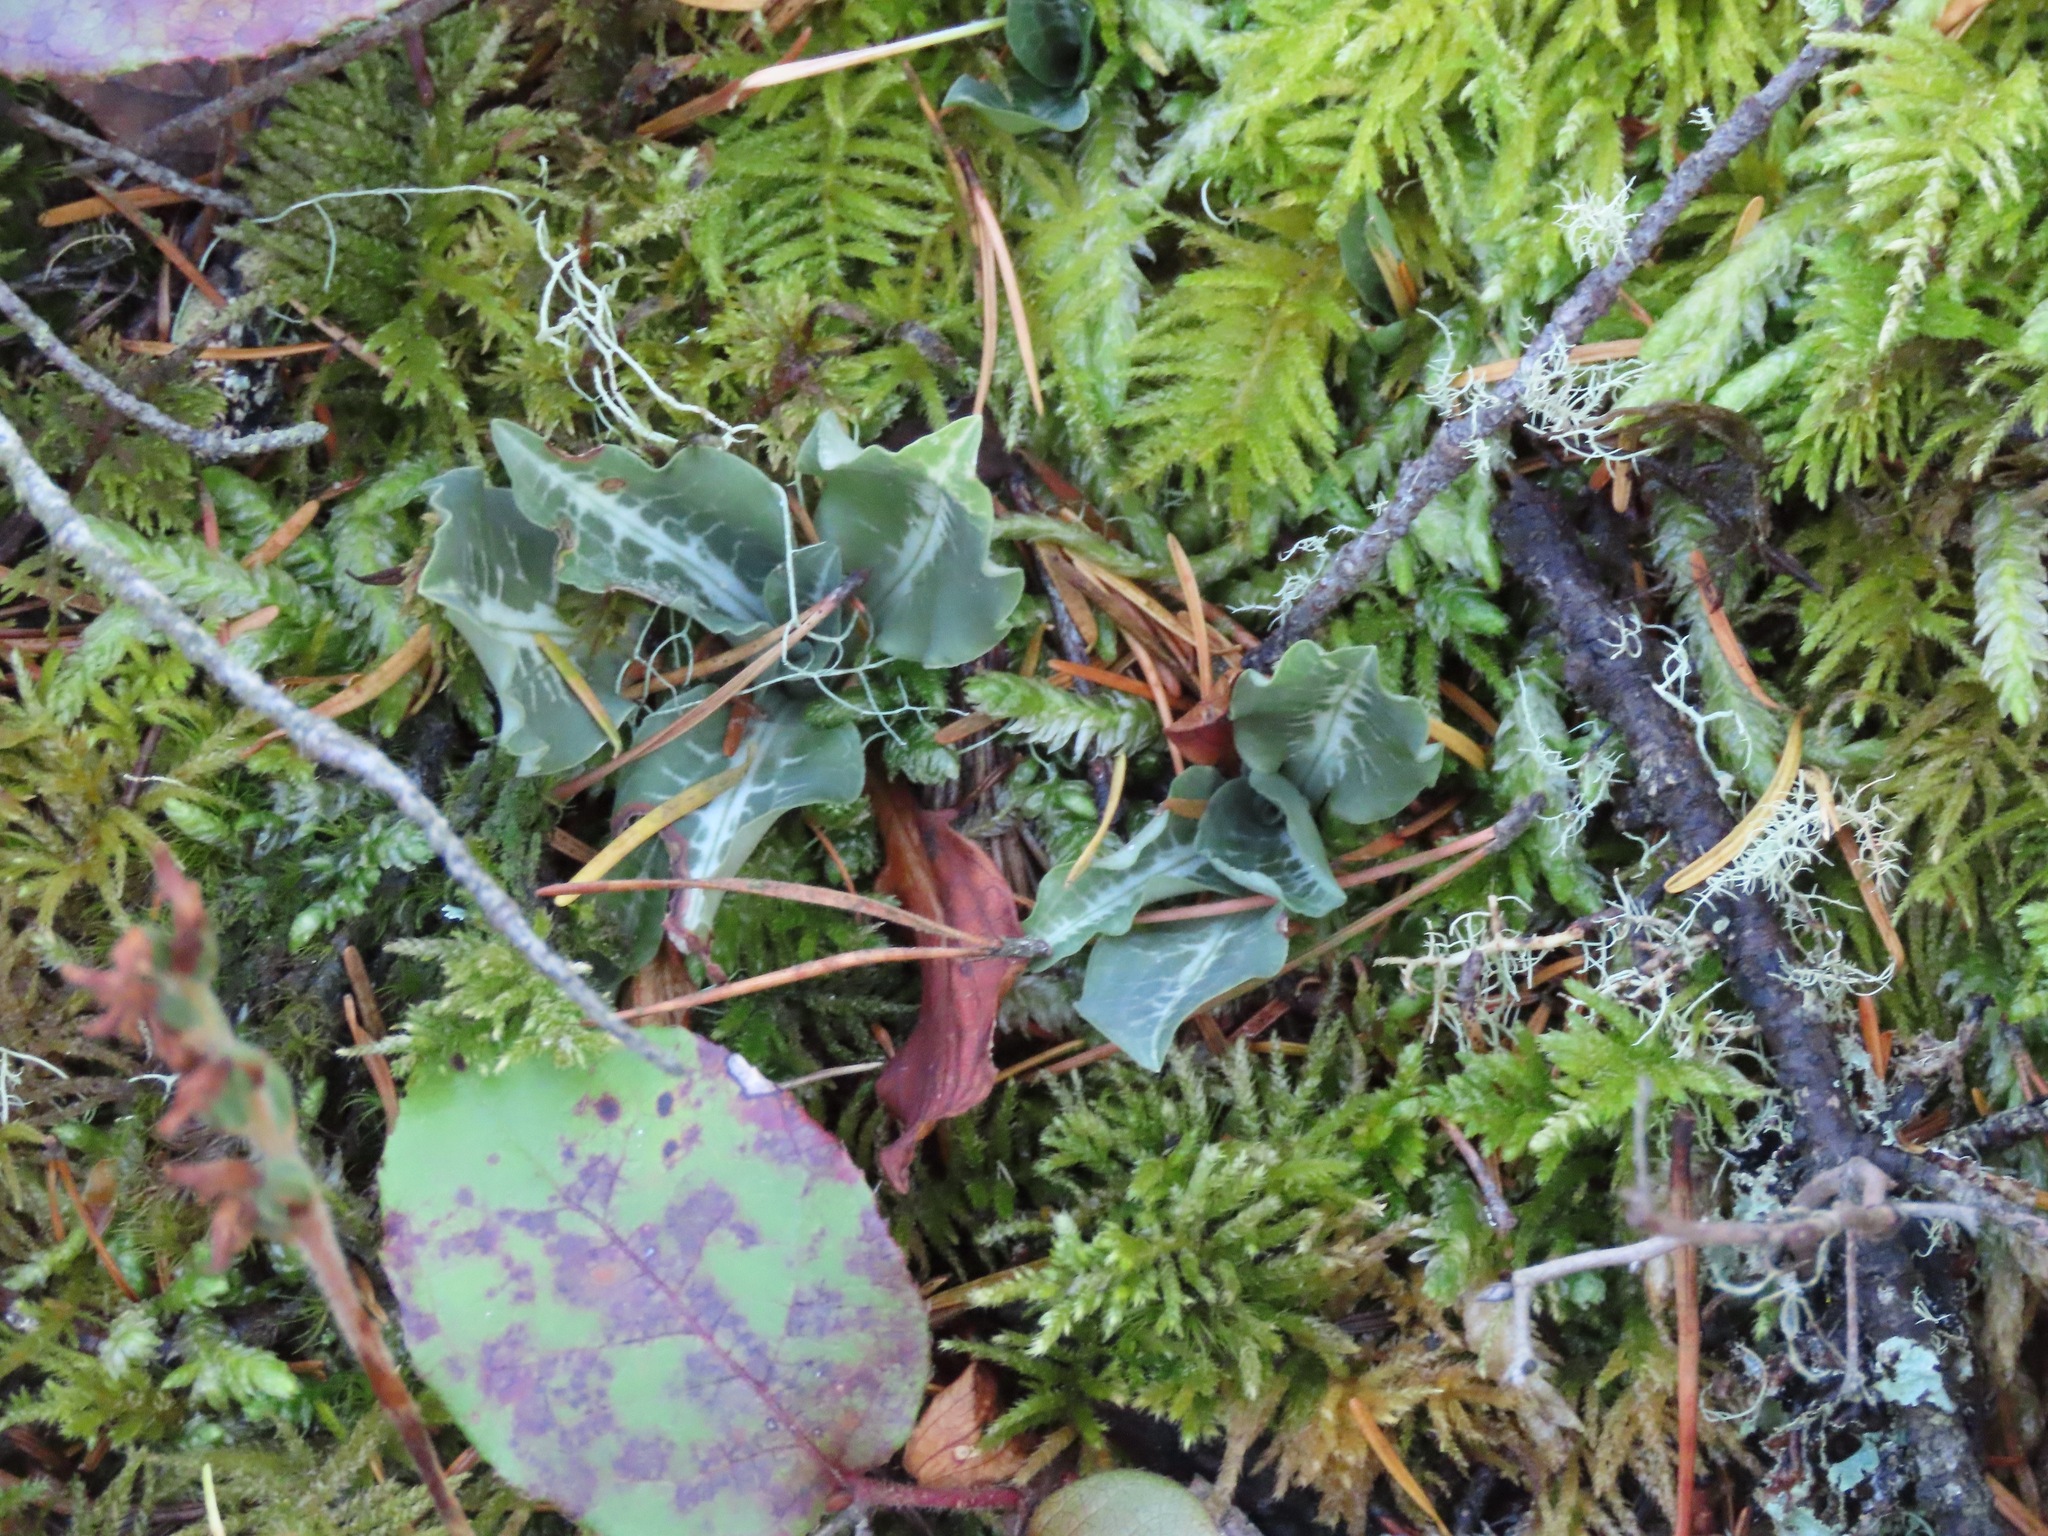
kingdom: Plantae
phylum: Tracheophyta
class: Liliopsida
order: Asparagales
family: Orchidaceae
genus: Goodyera
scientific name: Goodyera oblongifolia
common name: Giant rattlesnake-plantain
